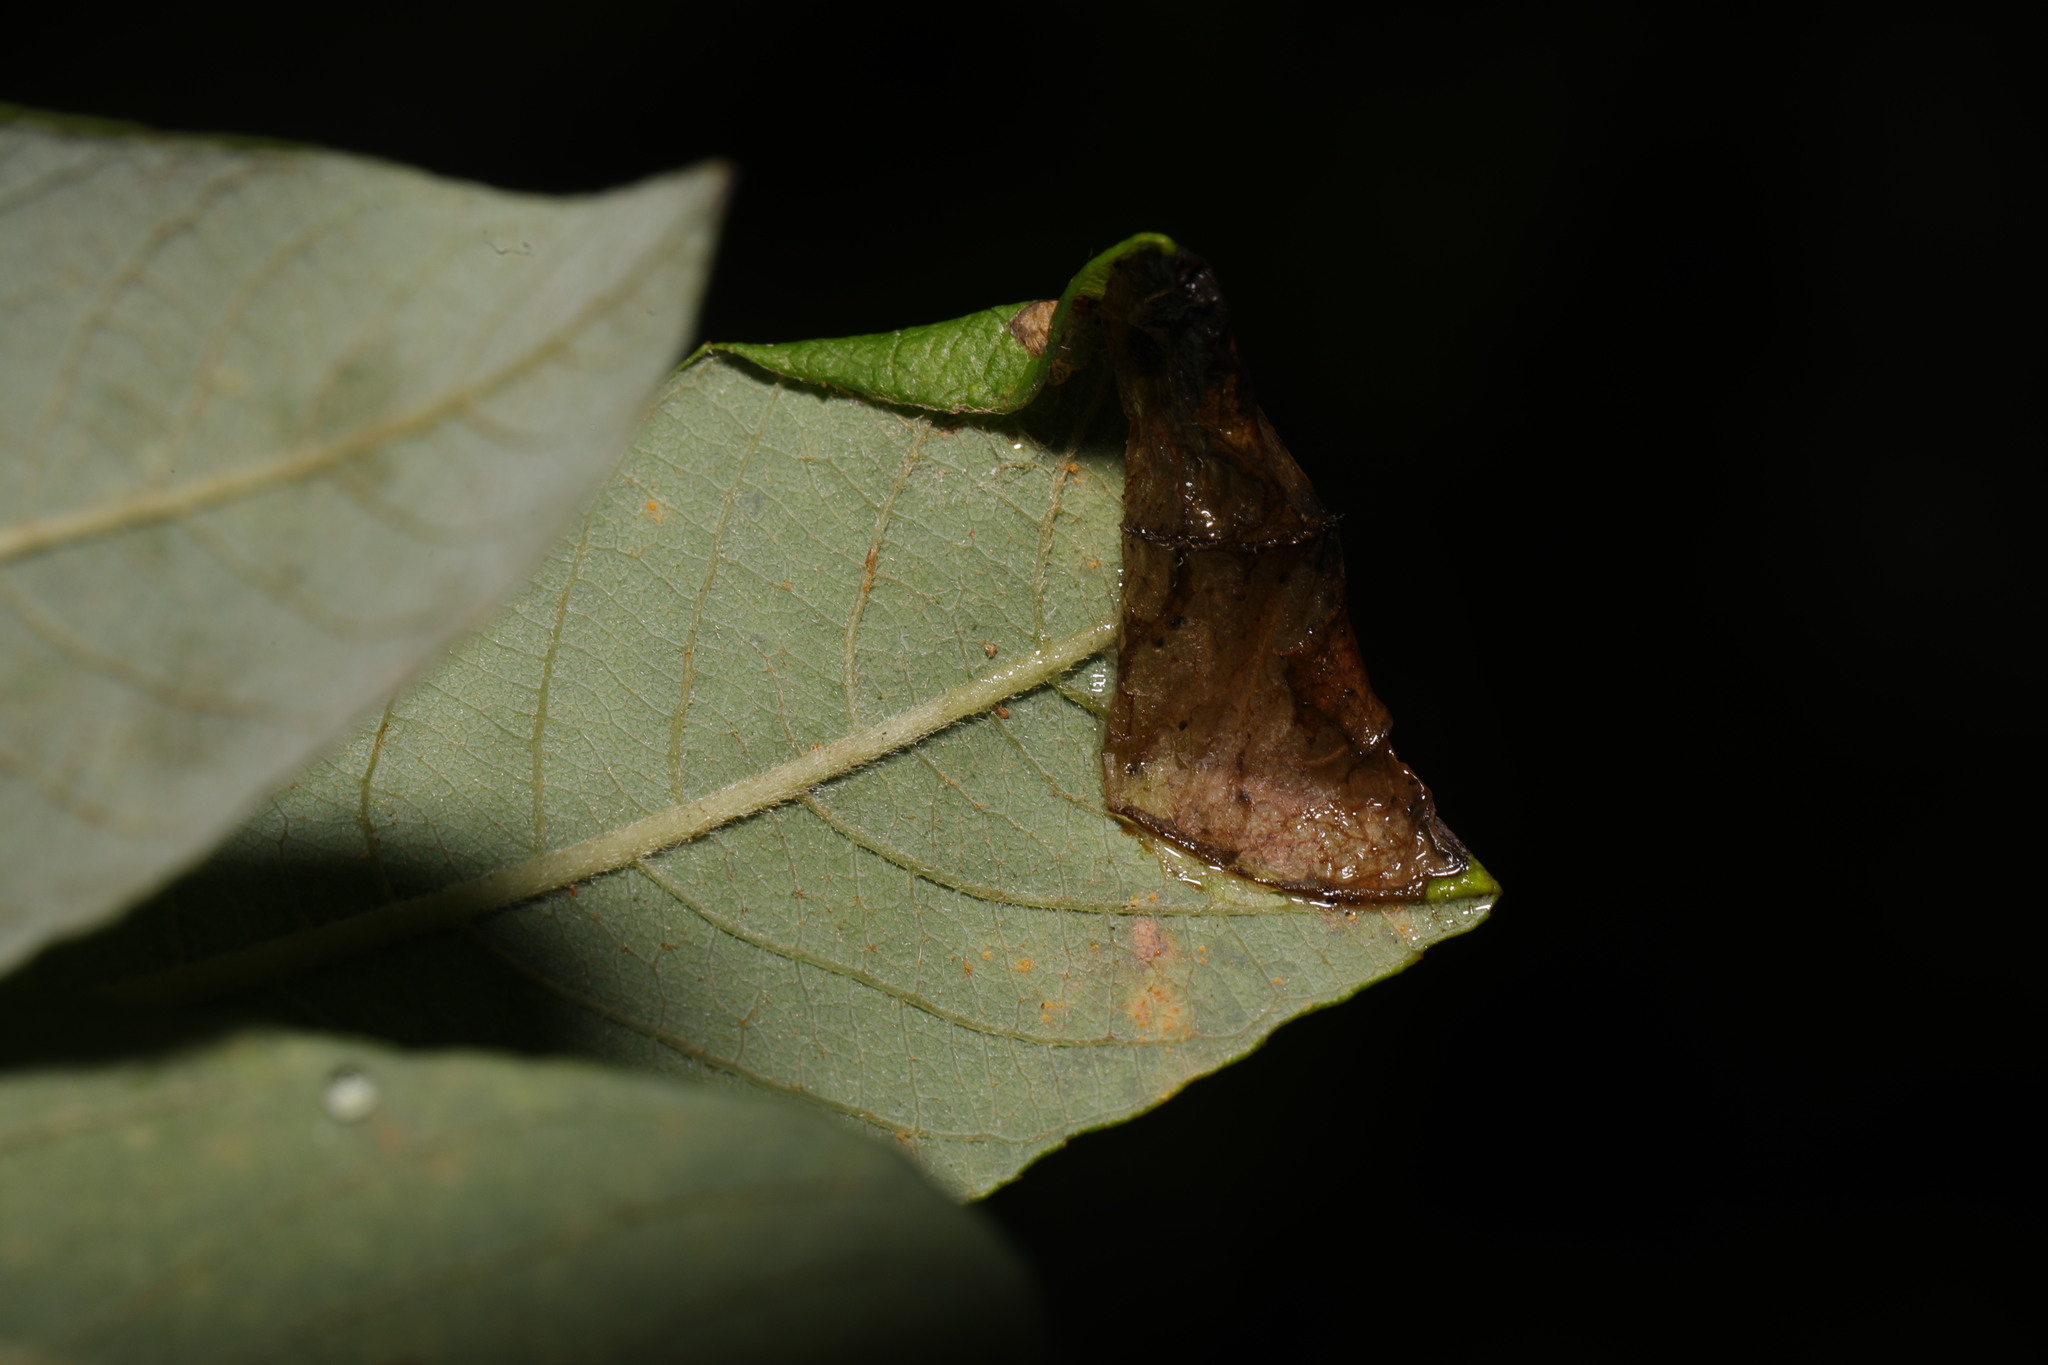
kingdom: Animalia
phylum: Arthropoda
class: Insecta
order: Lepidoptera
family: Gracillariidae
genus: Caloptilia
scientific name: Caloptilia stigmatella
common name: White-triangle slender
